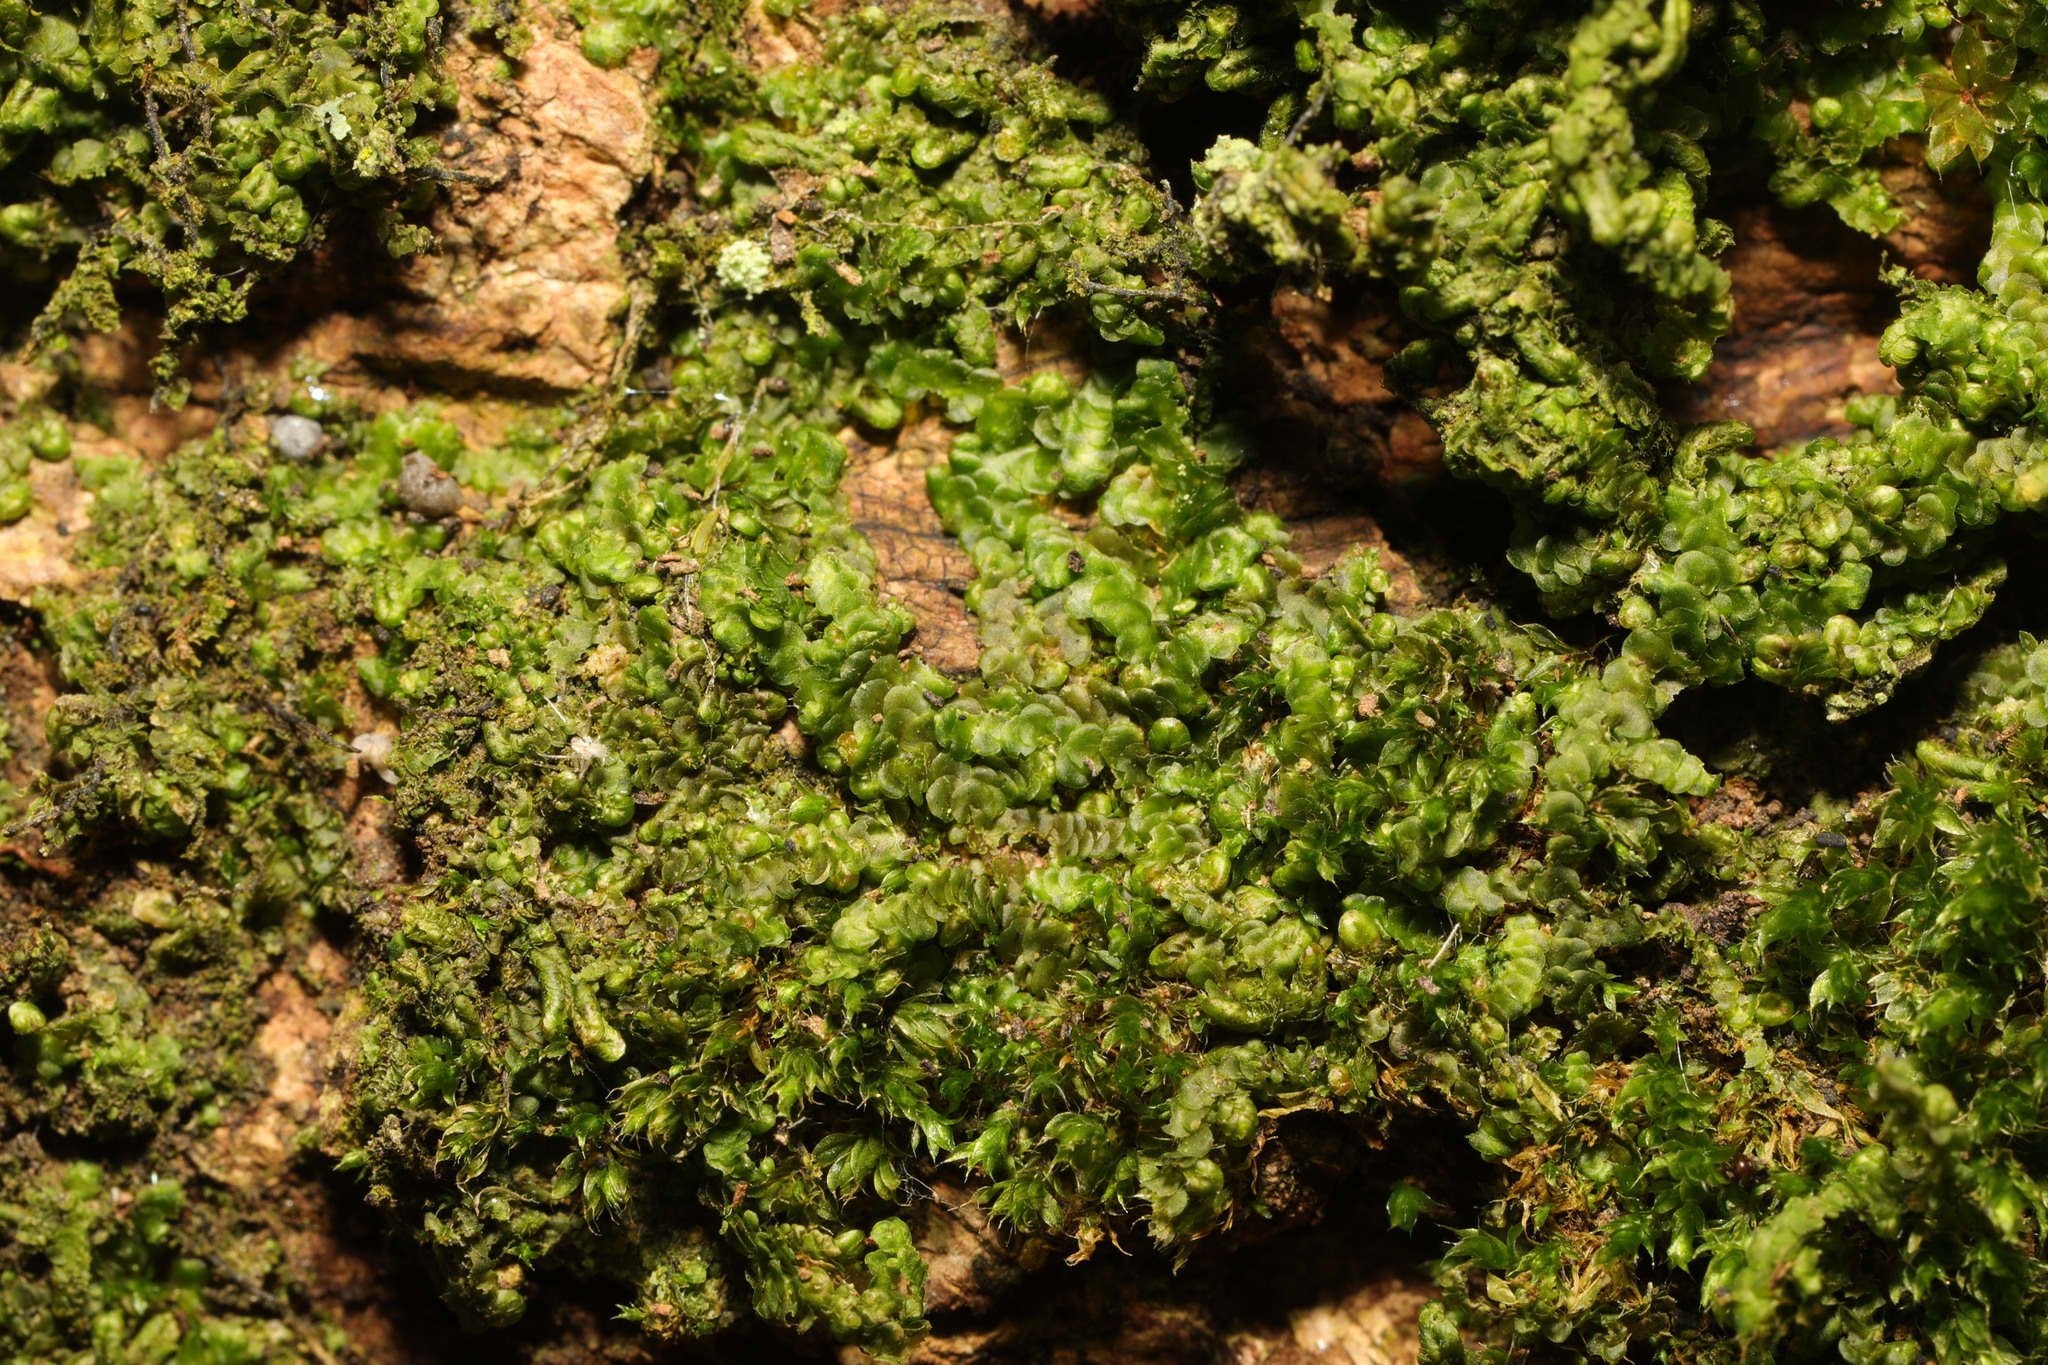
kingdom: Plantae
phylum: Marchantiophyta
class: Jungermanniopsida
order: Porellales
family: Radulaceae
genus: Radula
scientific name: Radula complanata
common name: Flat-leaved scalewort
